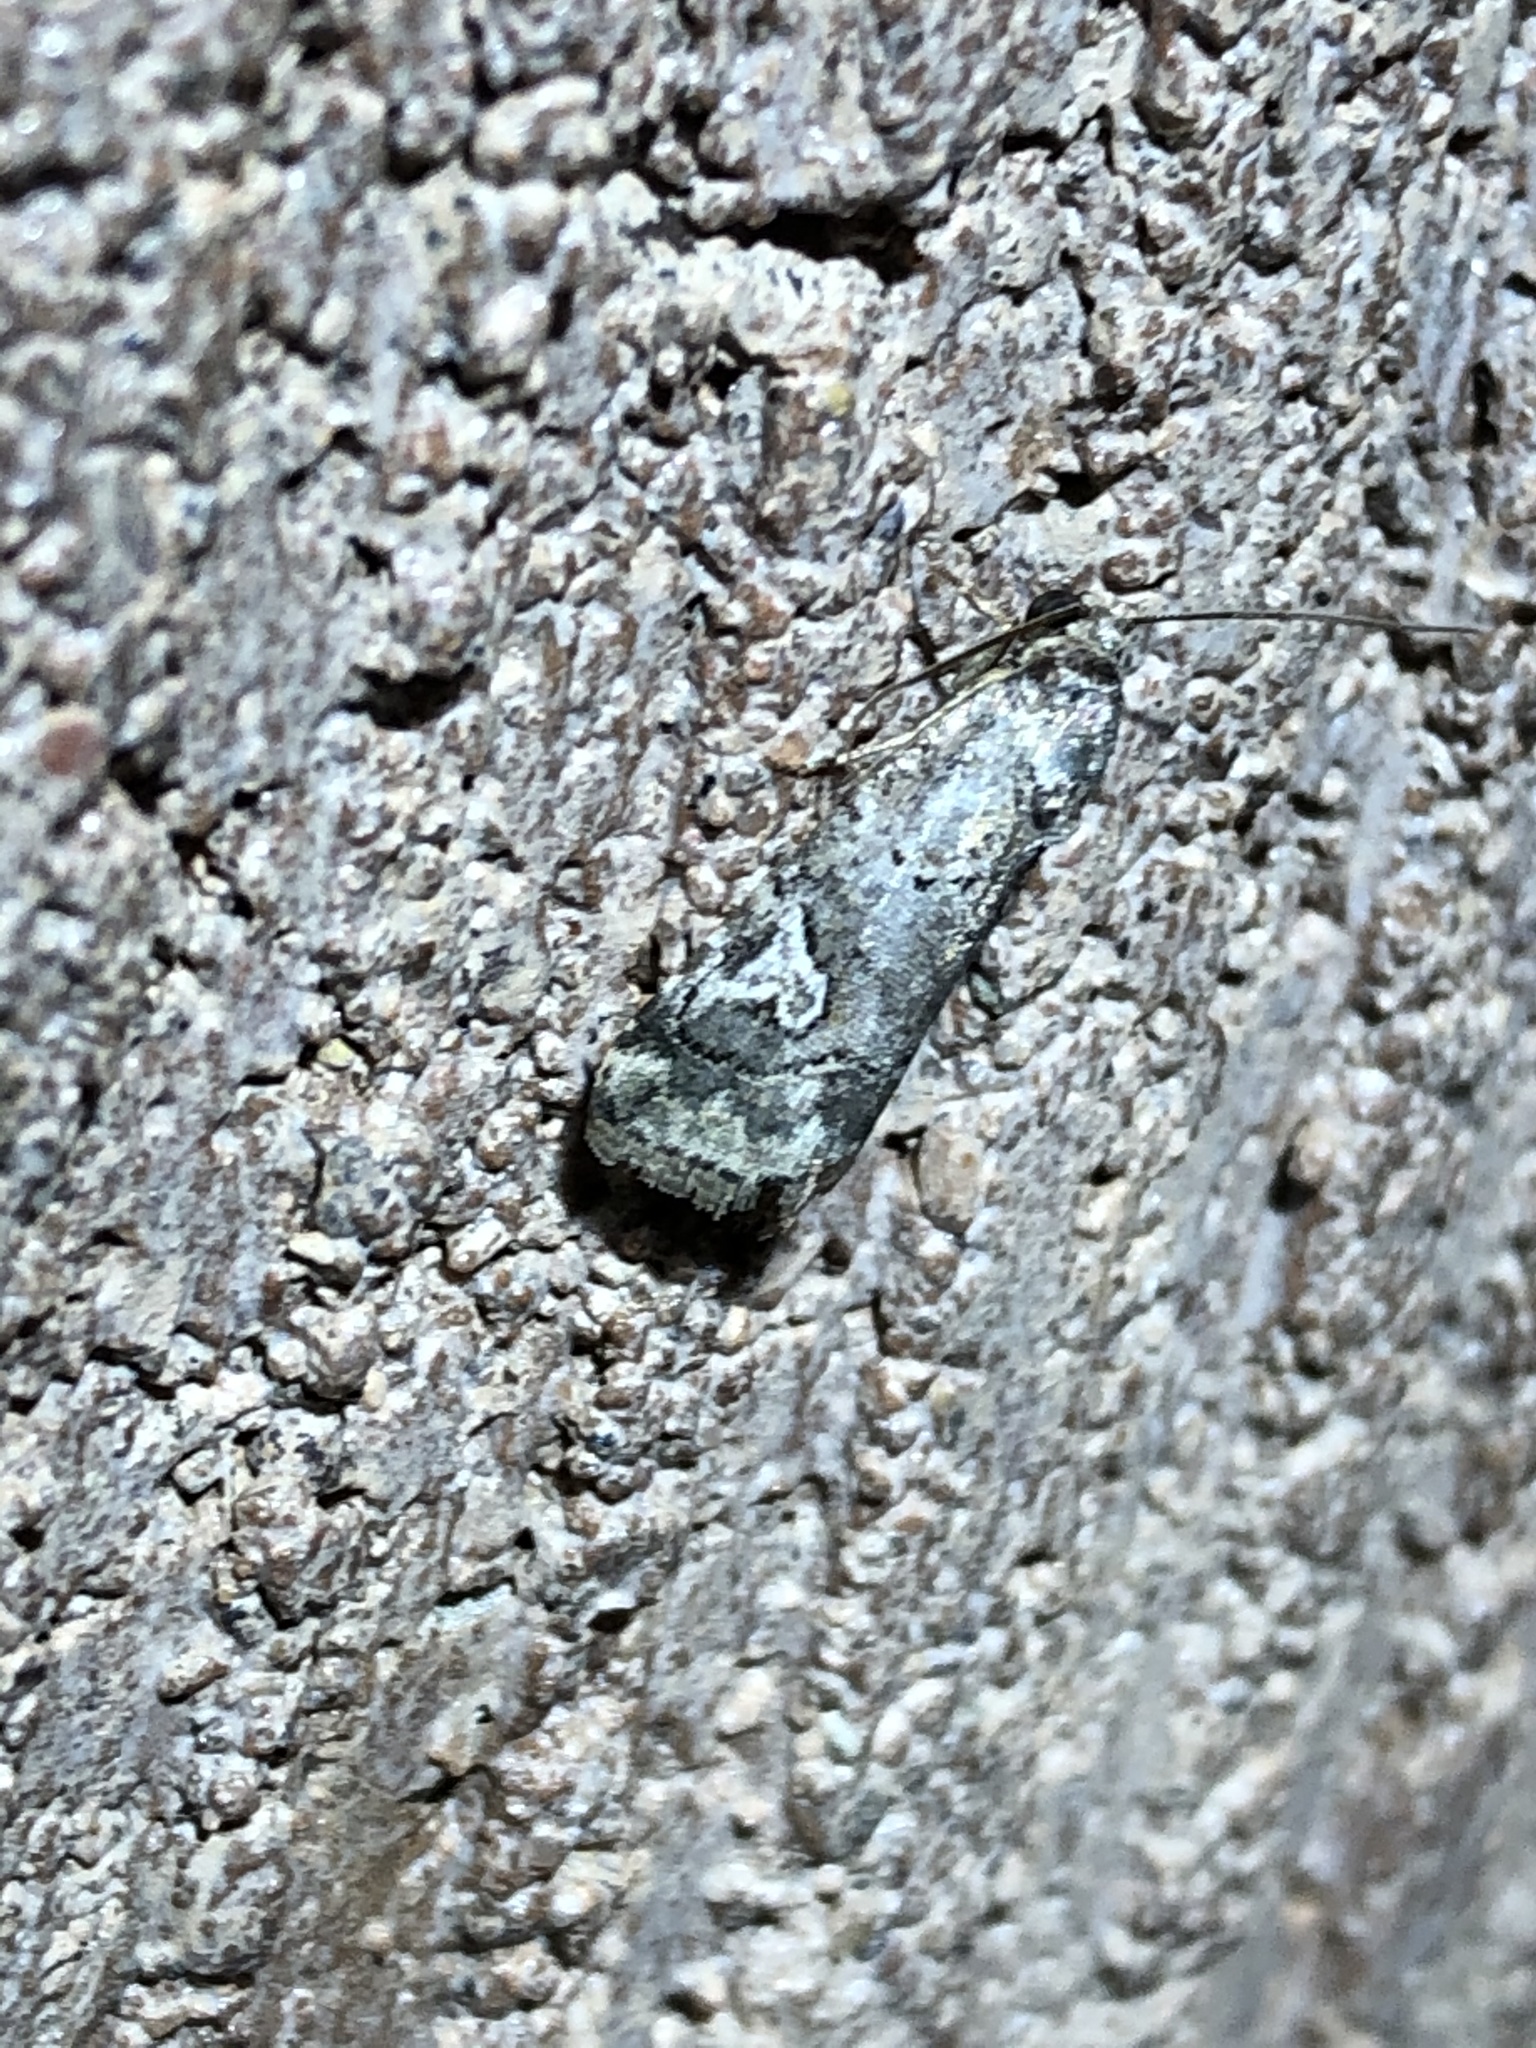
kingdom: Animalia
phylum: Arthropoda
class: Insecta
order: Lepidoptera
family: Noctuidae
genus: Metaponpneumata
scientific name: Metaponpneumata rogenhoferi
